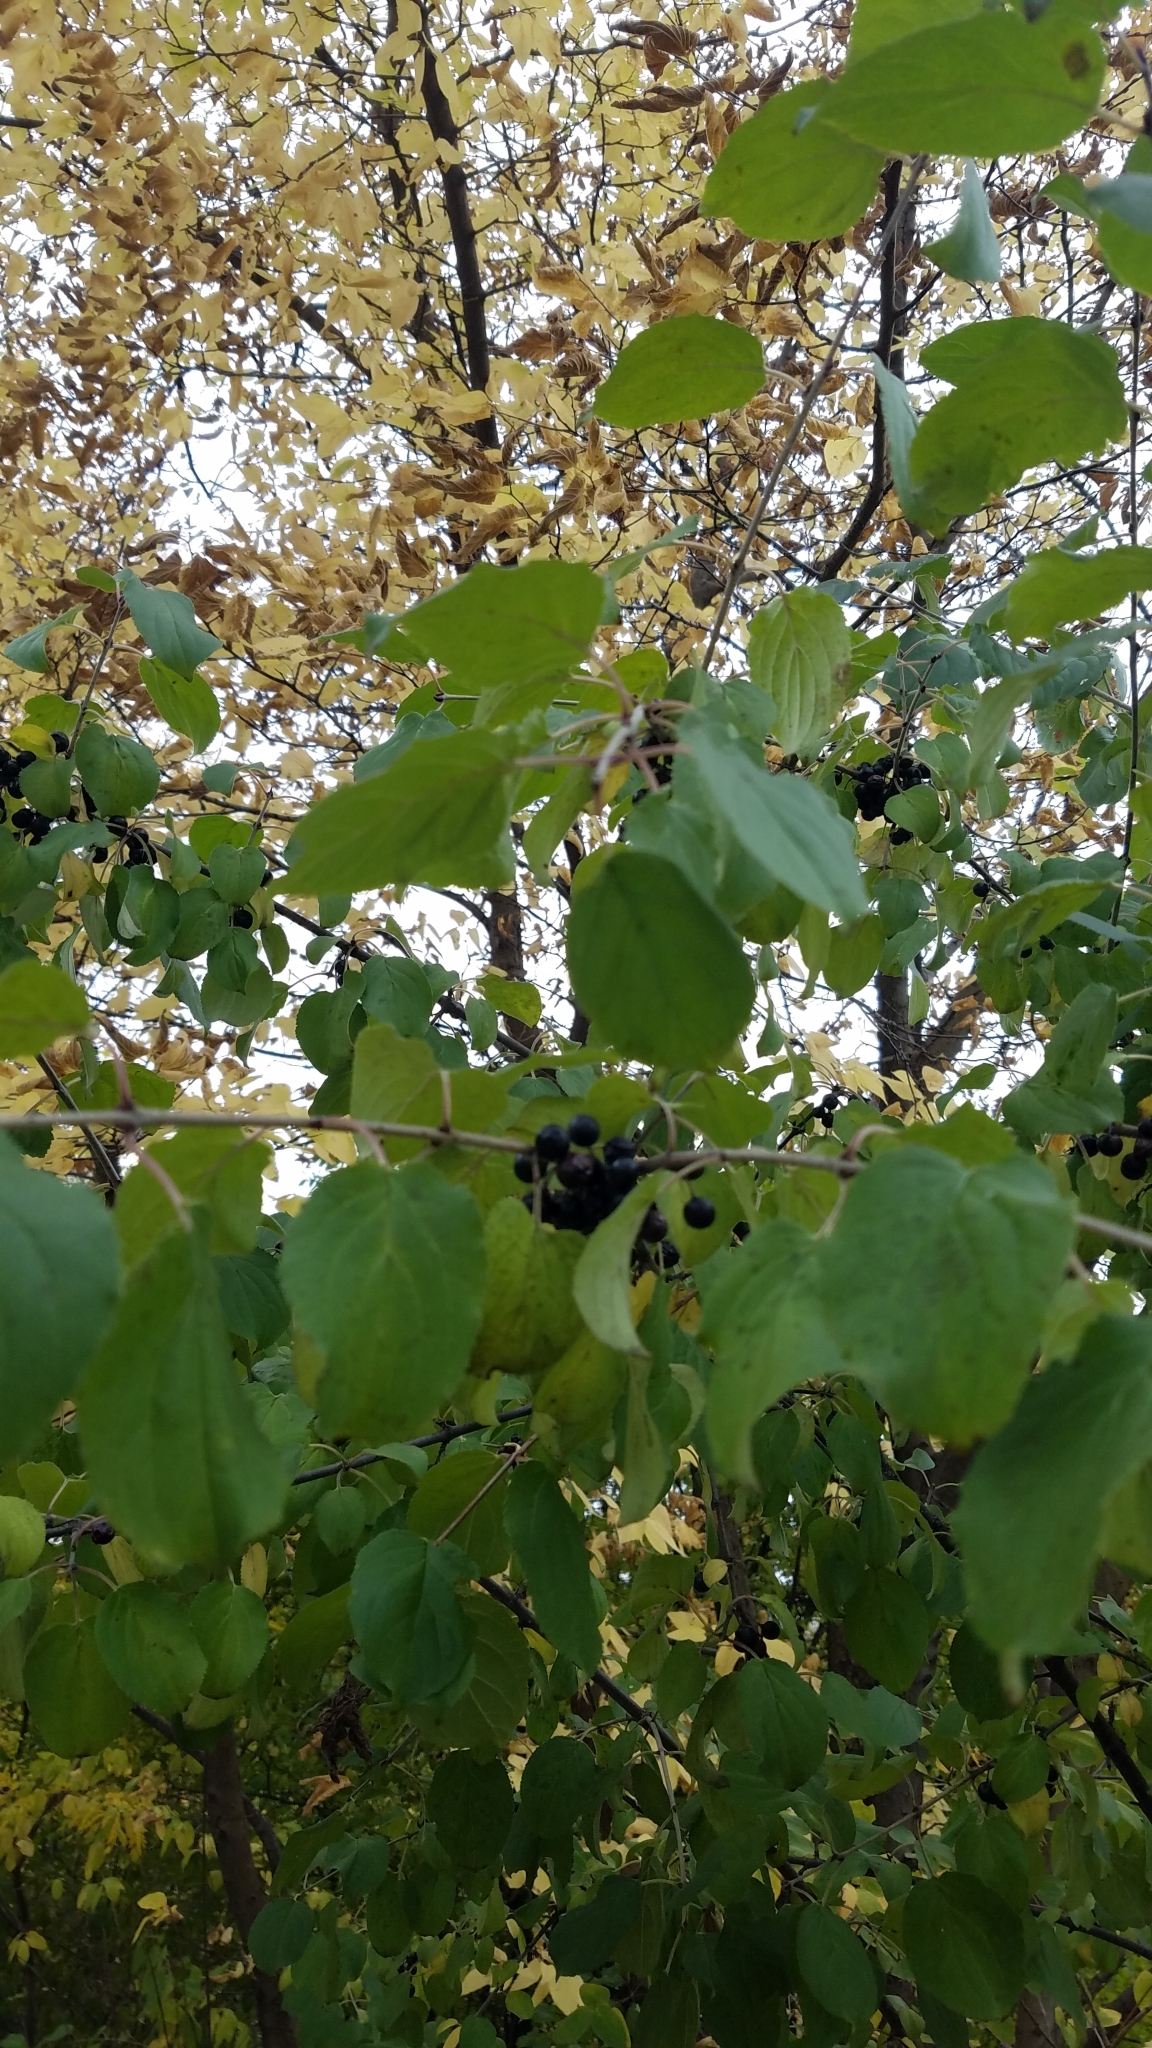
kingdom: Plantae
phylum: Tracheophyta
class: Magnoliopsida
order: Rosales
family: Rhamnaceae
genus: Rhamnus
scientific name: Rhamnus cathartica
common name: Common buckthorn
